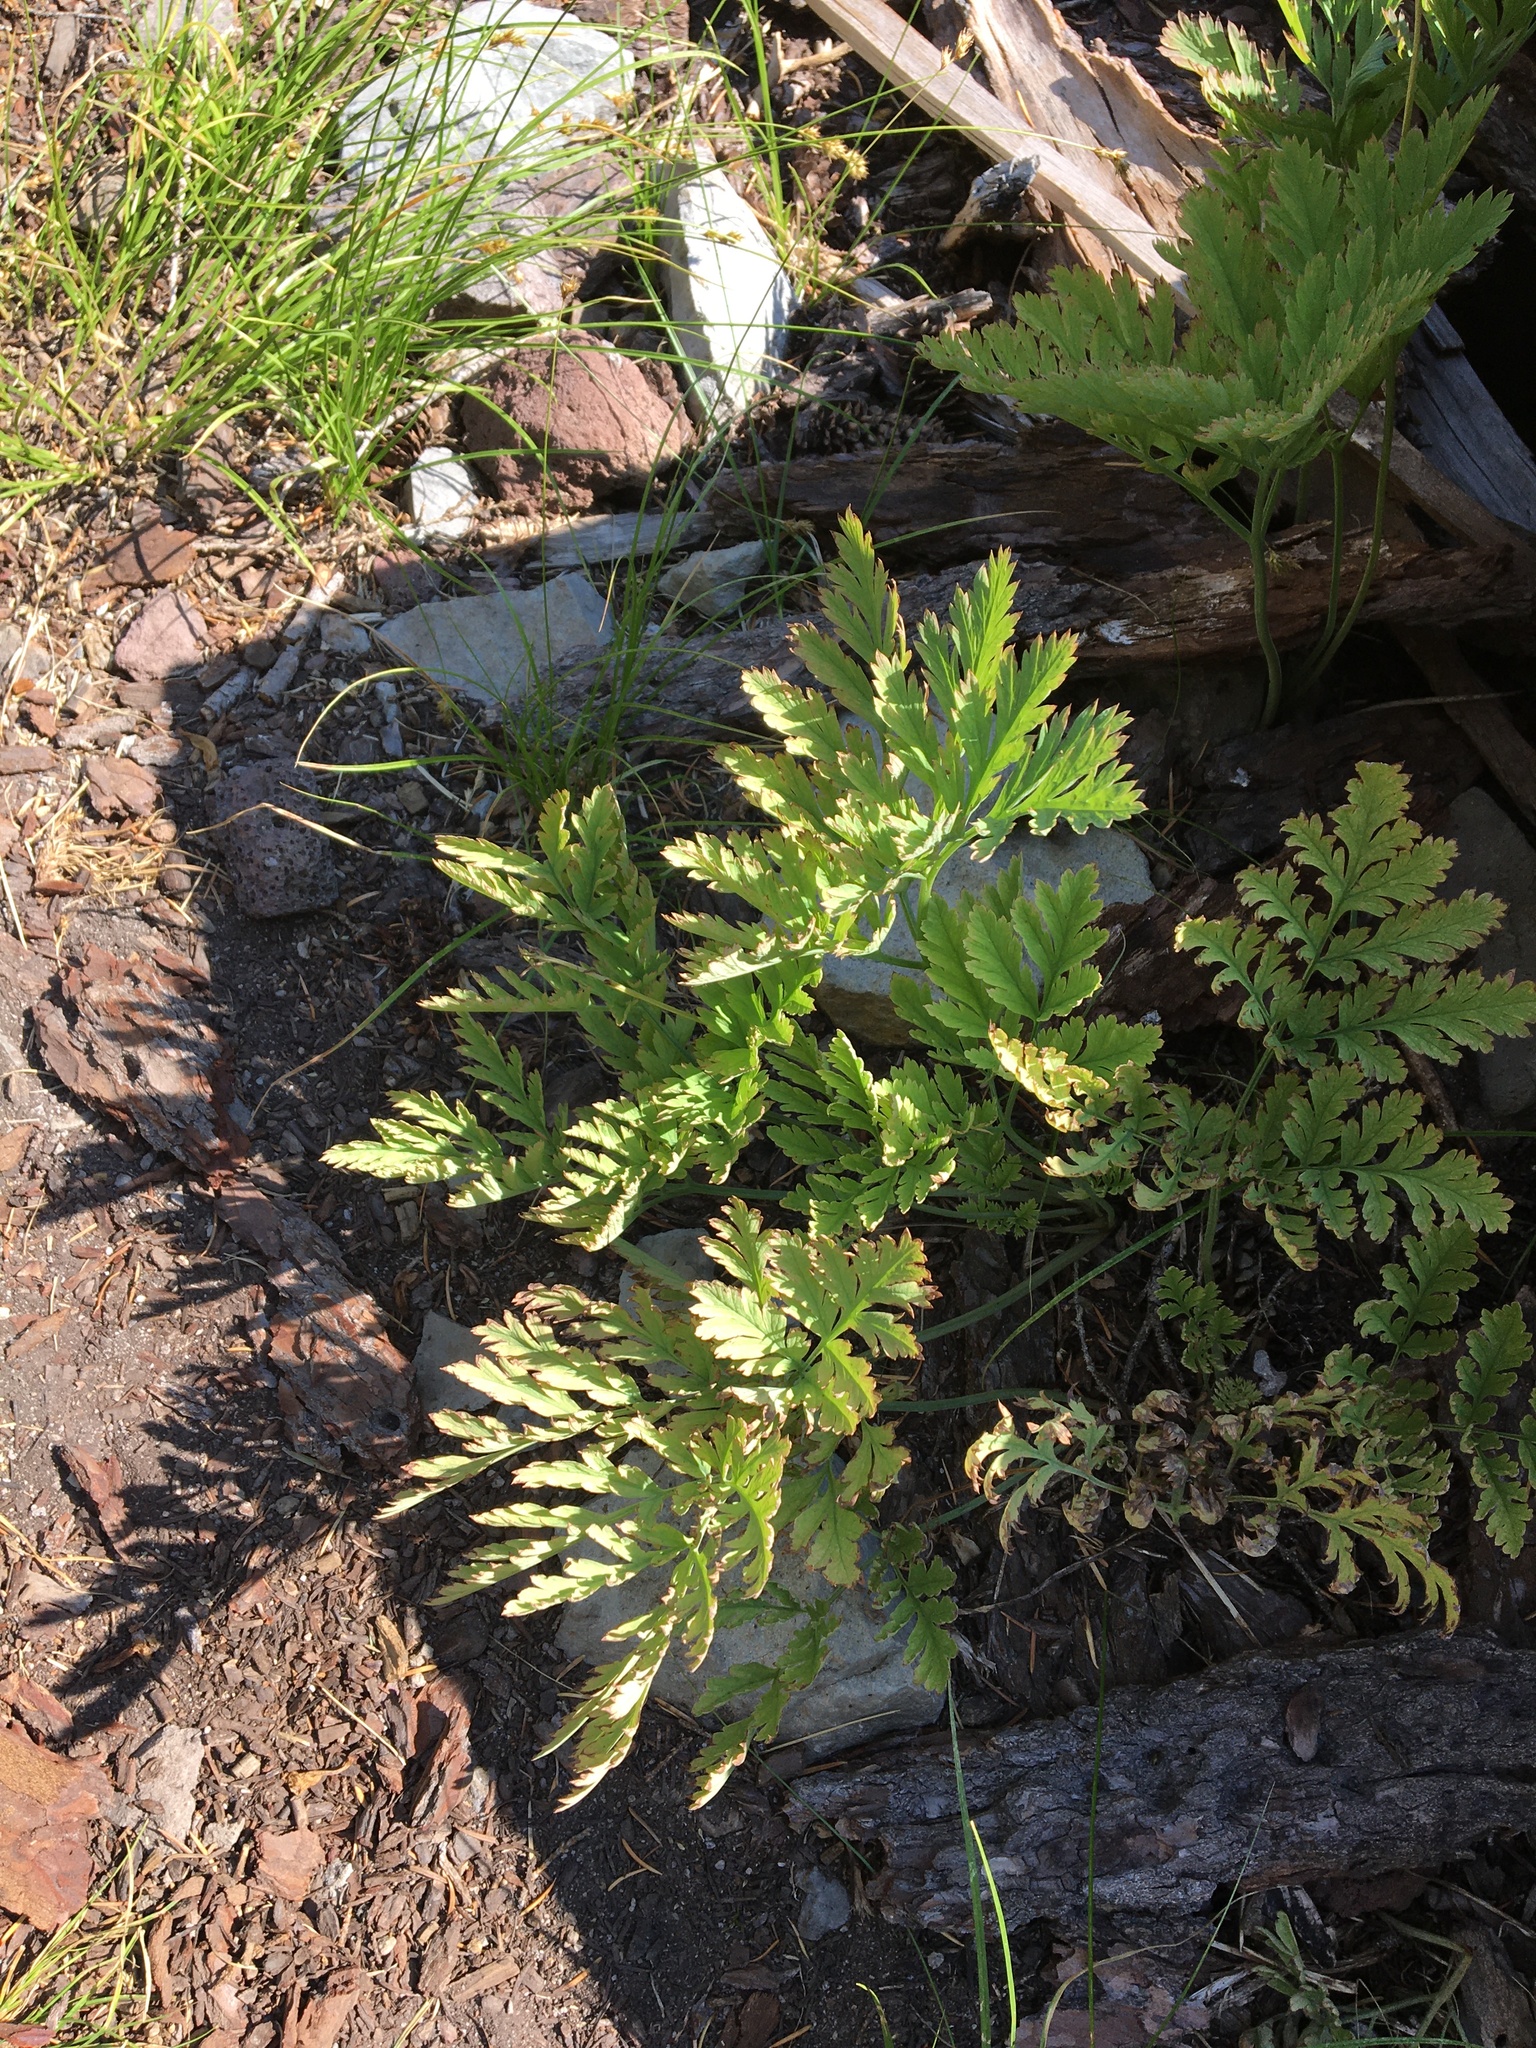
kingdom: Plantae
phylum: Tracheophyta
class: Magnoliopsida
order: Ranunculales
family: Papaveraceae
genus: Dicentra
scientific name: Dicentra formosa
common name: Bleeding-heart
